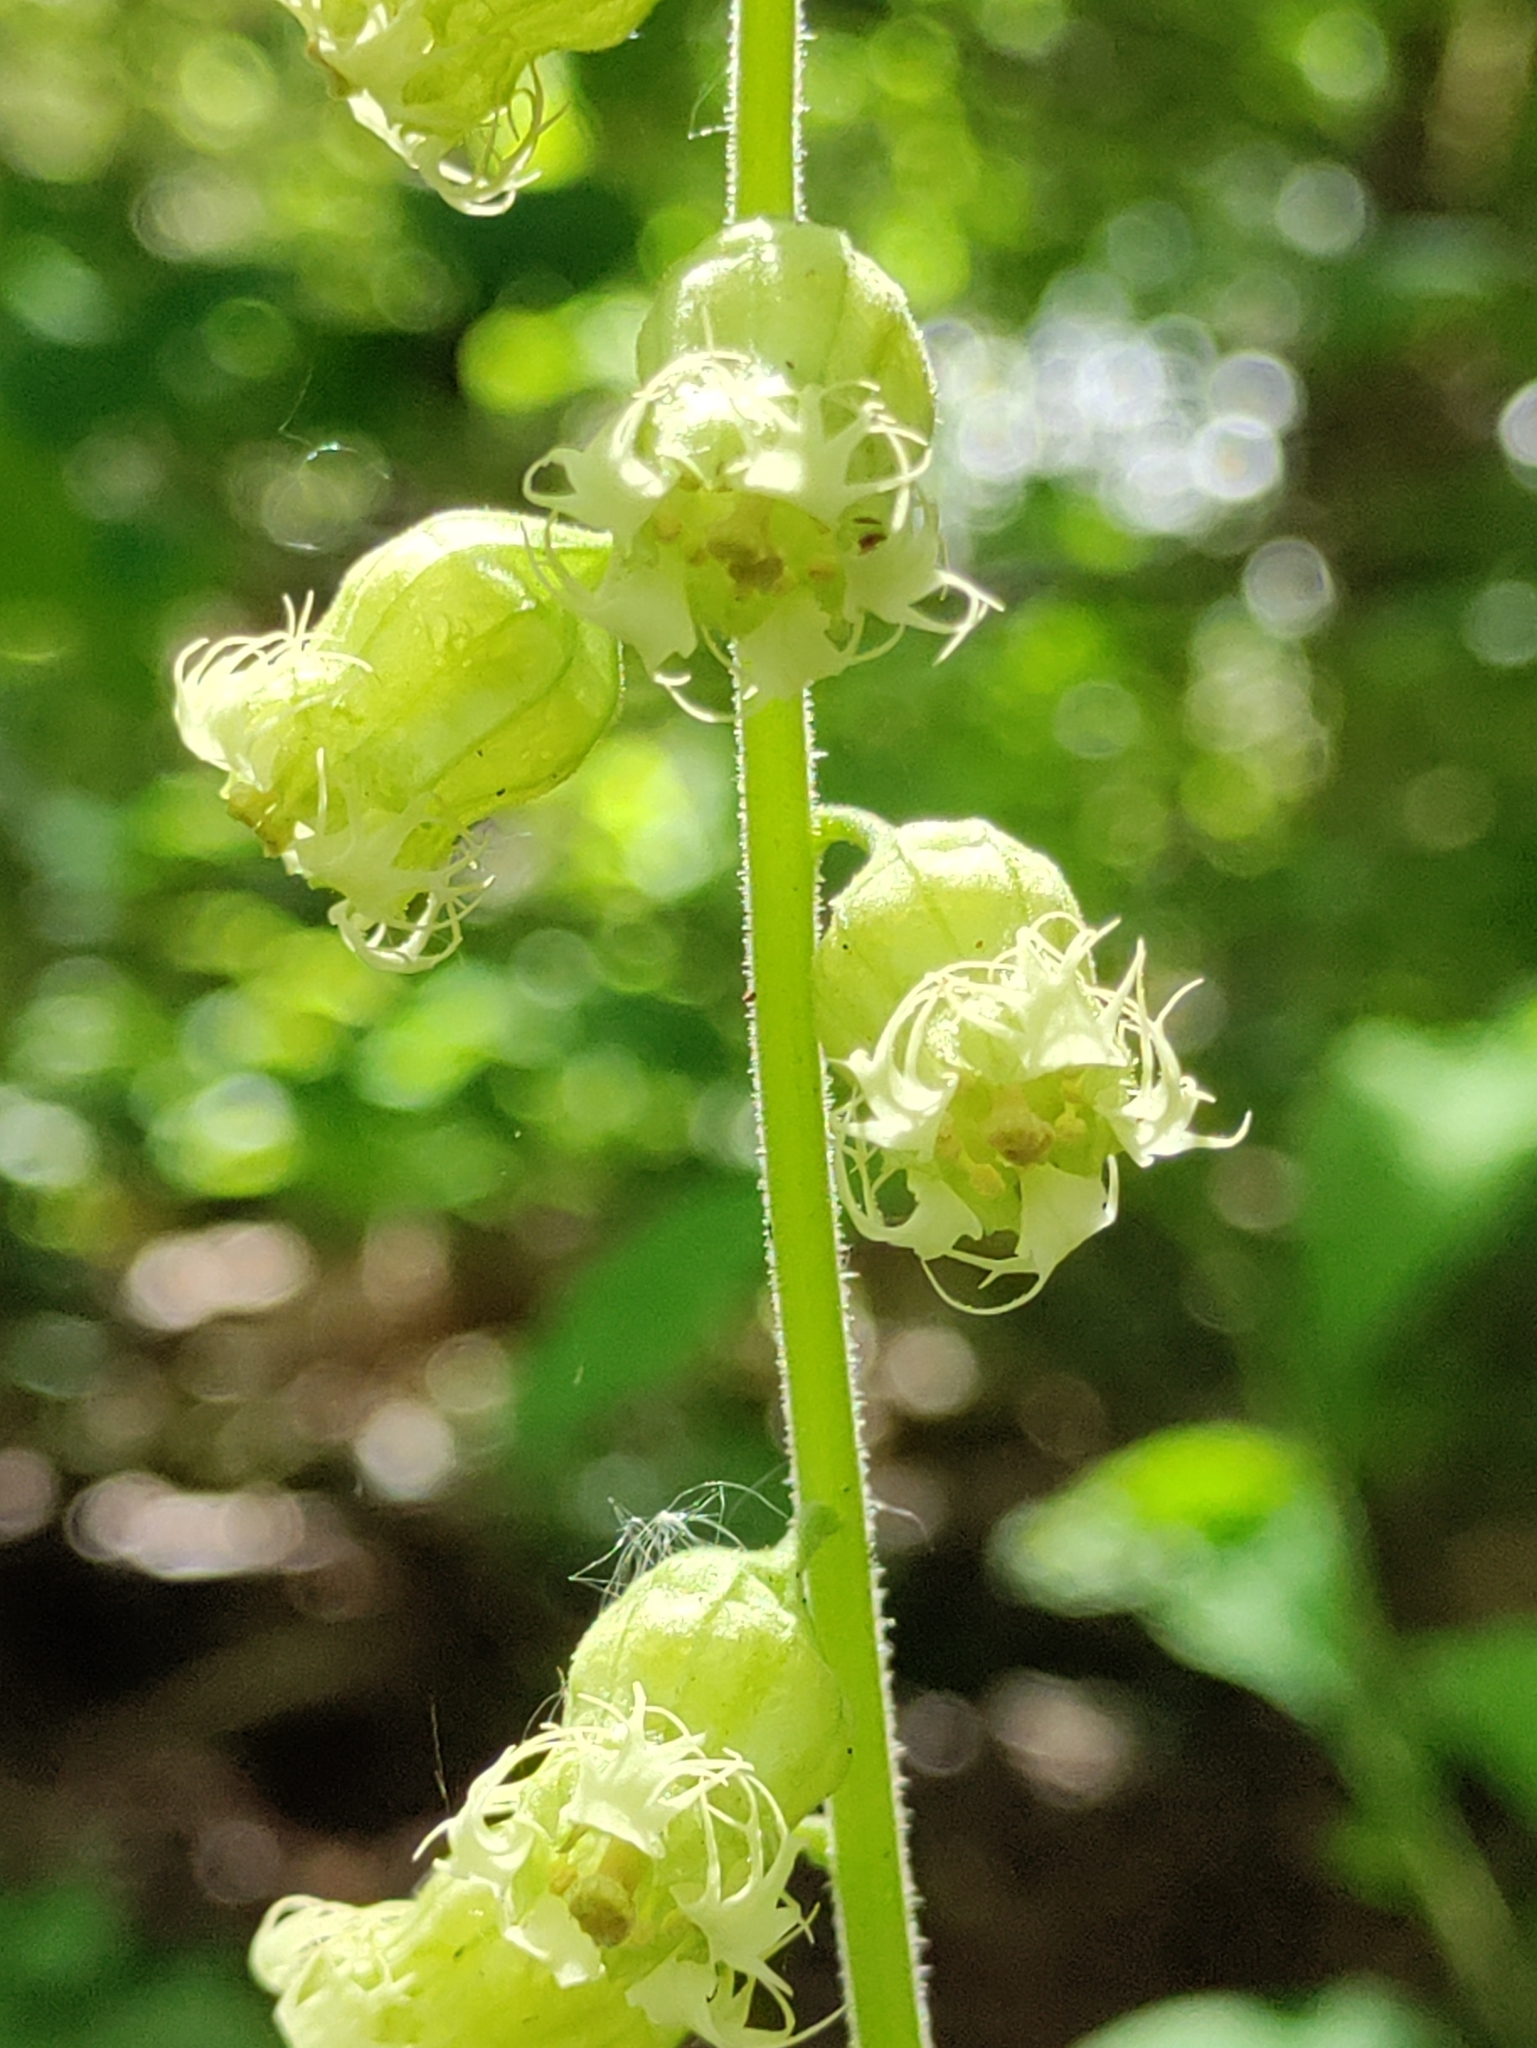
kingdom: Plantae
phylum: Tracheophyta
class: Magnoliopsida
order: Saxifragales
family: Saxifragaceae
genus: Tellima
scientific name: Tellima grandiflora
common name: Fringecups
